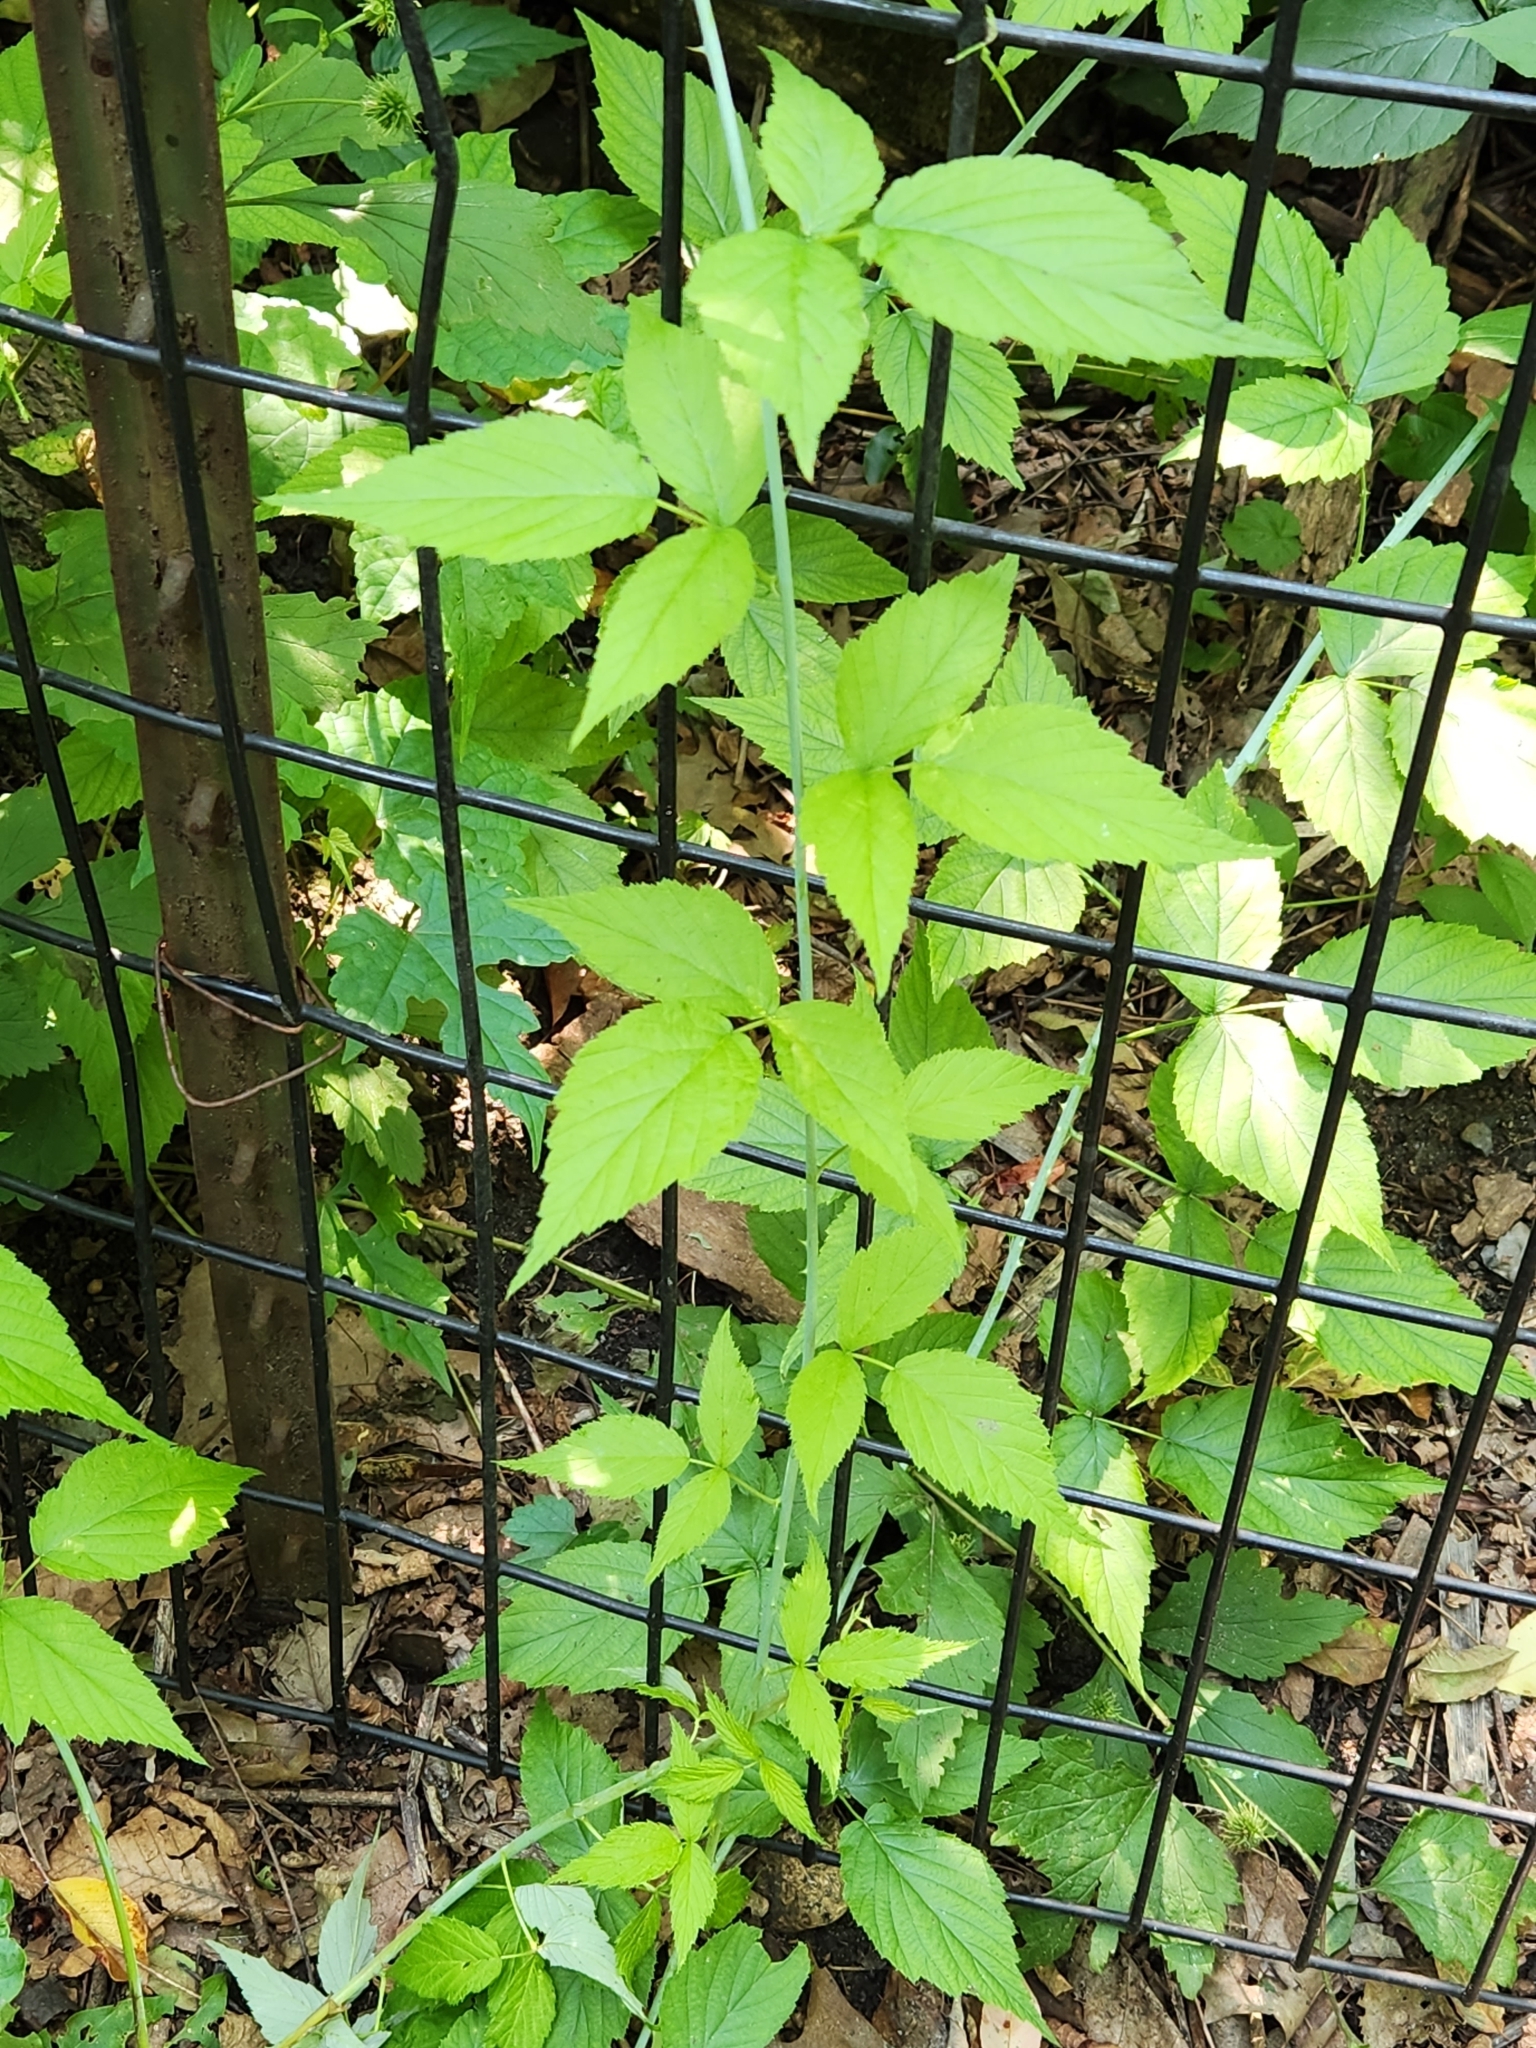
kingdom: Plantae
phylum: Tracheophyta
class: Magnoliopsida
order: Rosales
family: Rosaceae
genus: Rubus
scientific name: Rubus occidentalis
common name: Black raspberry
